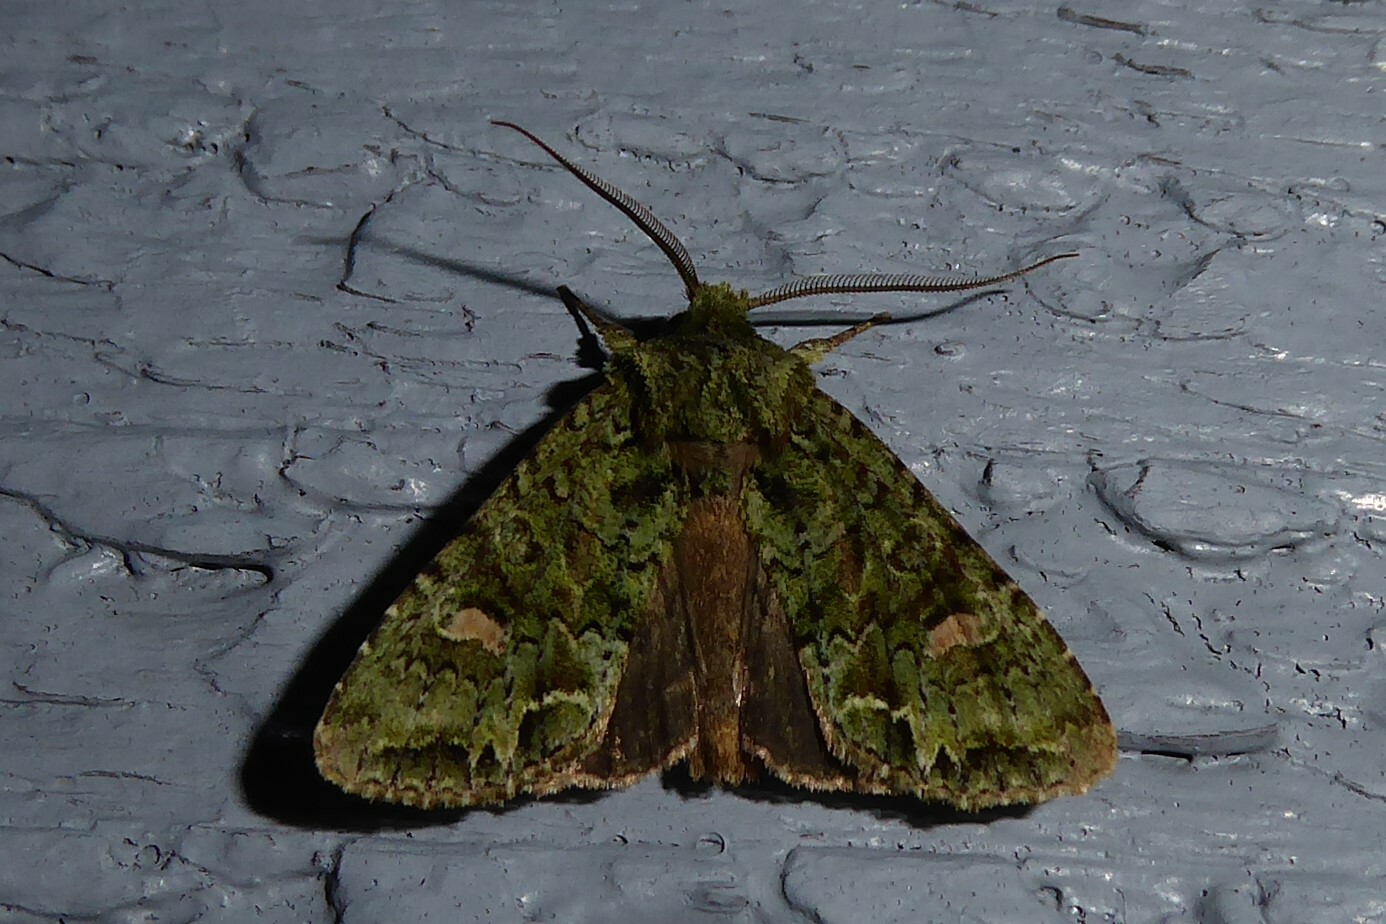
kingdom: Animalia
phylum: Arthropoda
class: Insecta
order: Lepidoptera
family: Noctuidae
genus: Ichneutica
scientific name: Ichneutica
